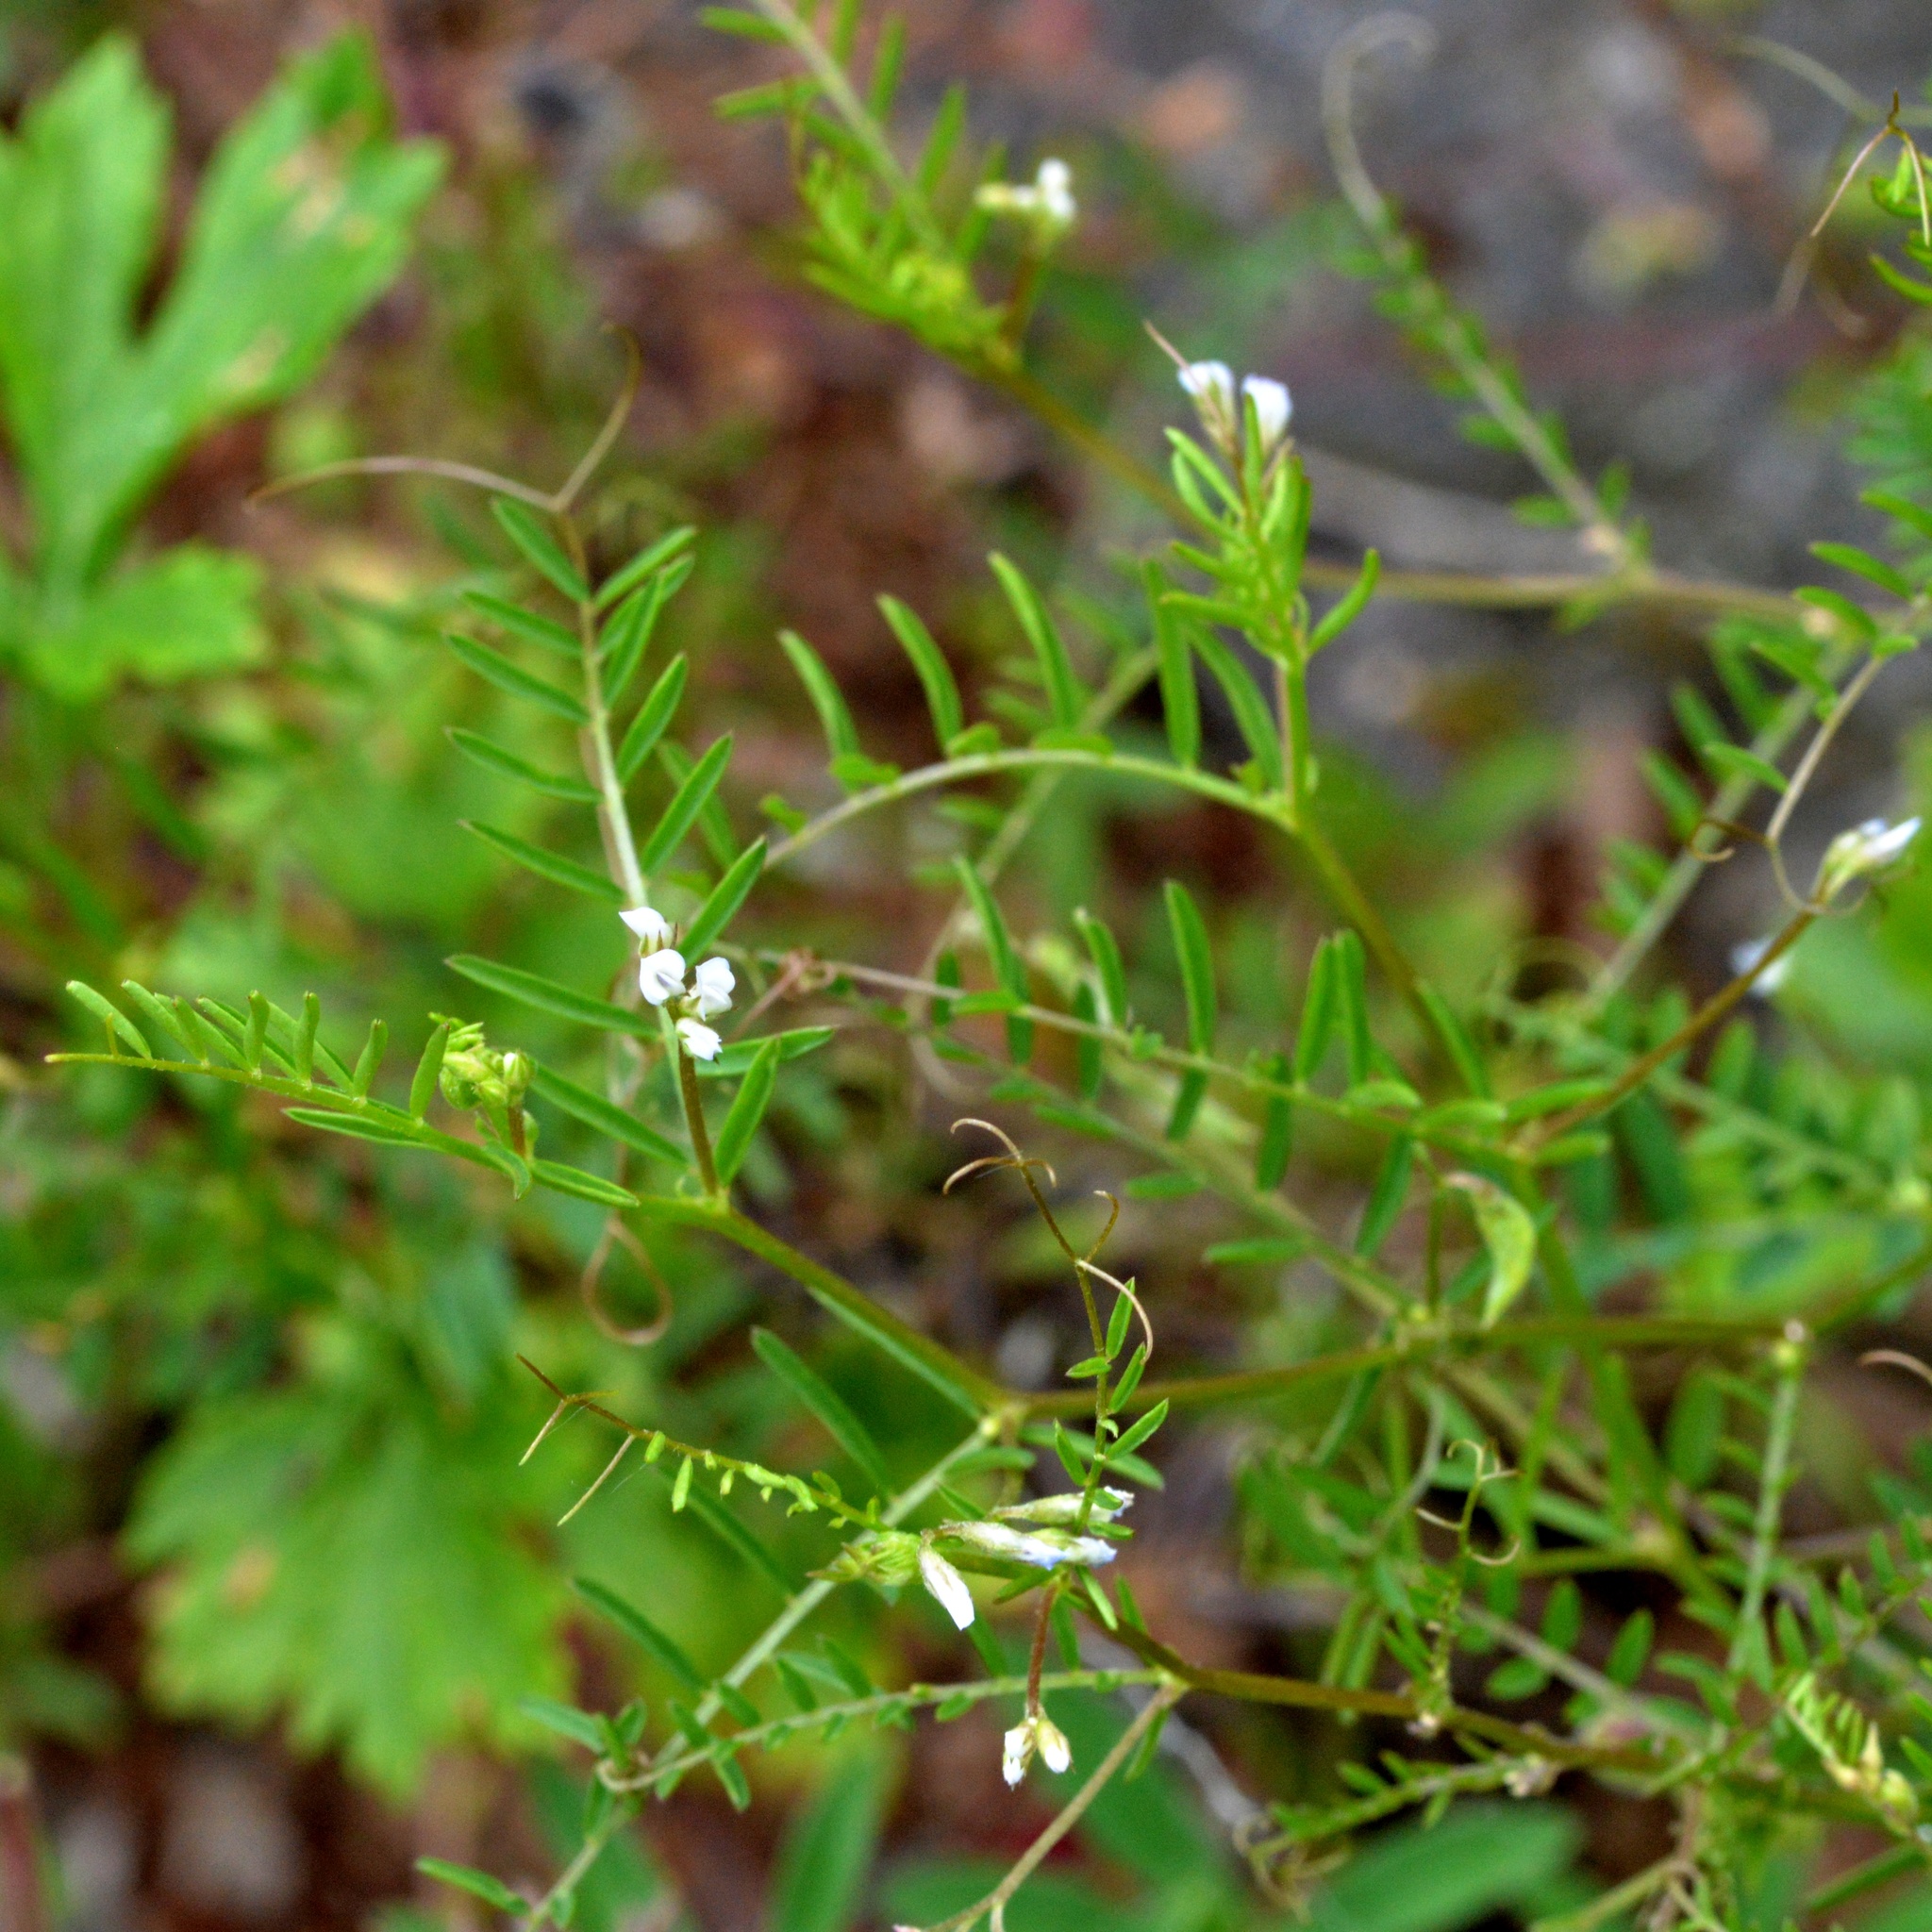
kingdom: Plantae
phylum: Tracheophyta
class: Magnoliopsida
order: Fabales
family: Fabaceae
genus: Vicia
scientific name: Vicia hirsuta
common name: Tiny vetch
